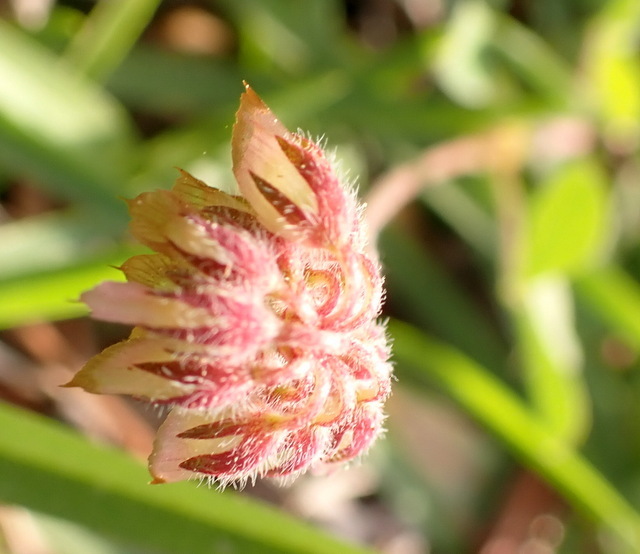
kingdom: Plantae
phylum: Tracheophyta
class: Magnoliopsida
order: Fabales
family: Fabaceae
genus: Trifolium
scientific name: Trifolium carolinianum
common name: Wild white clover
